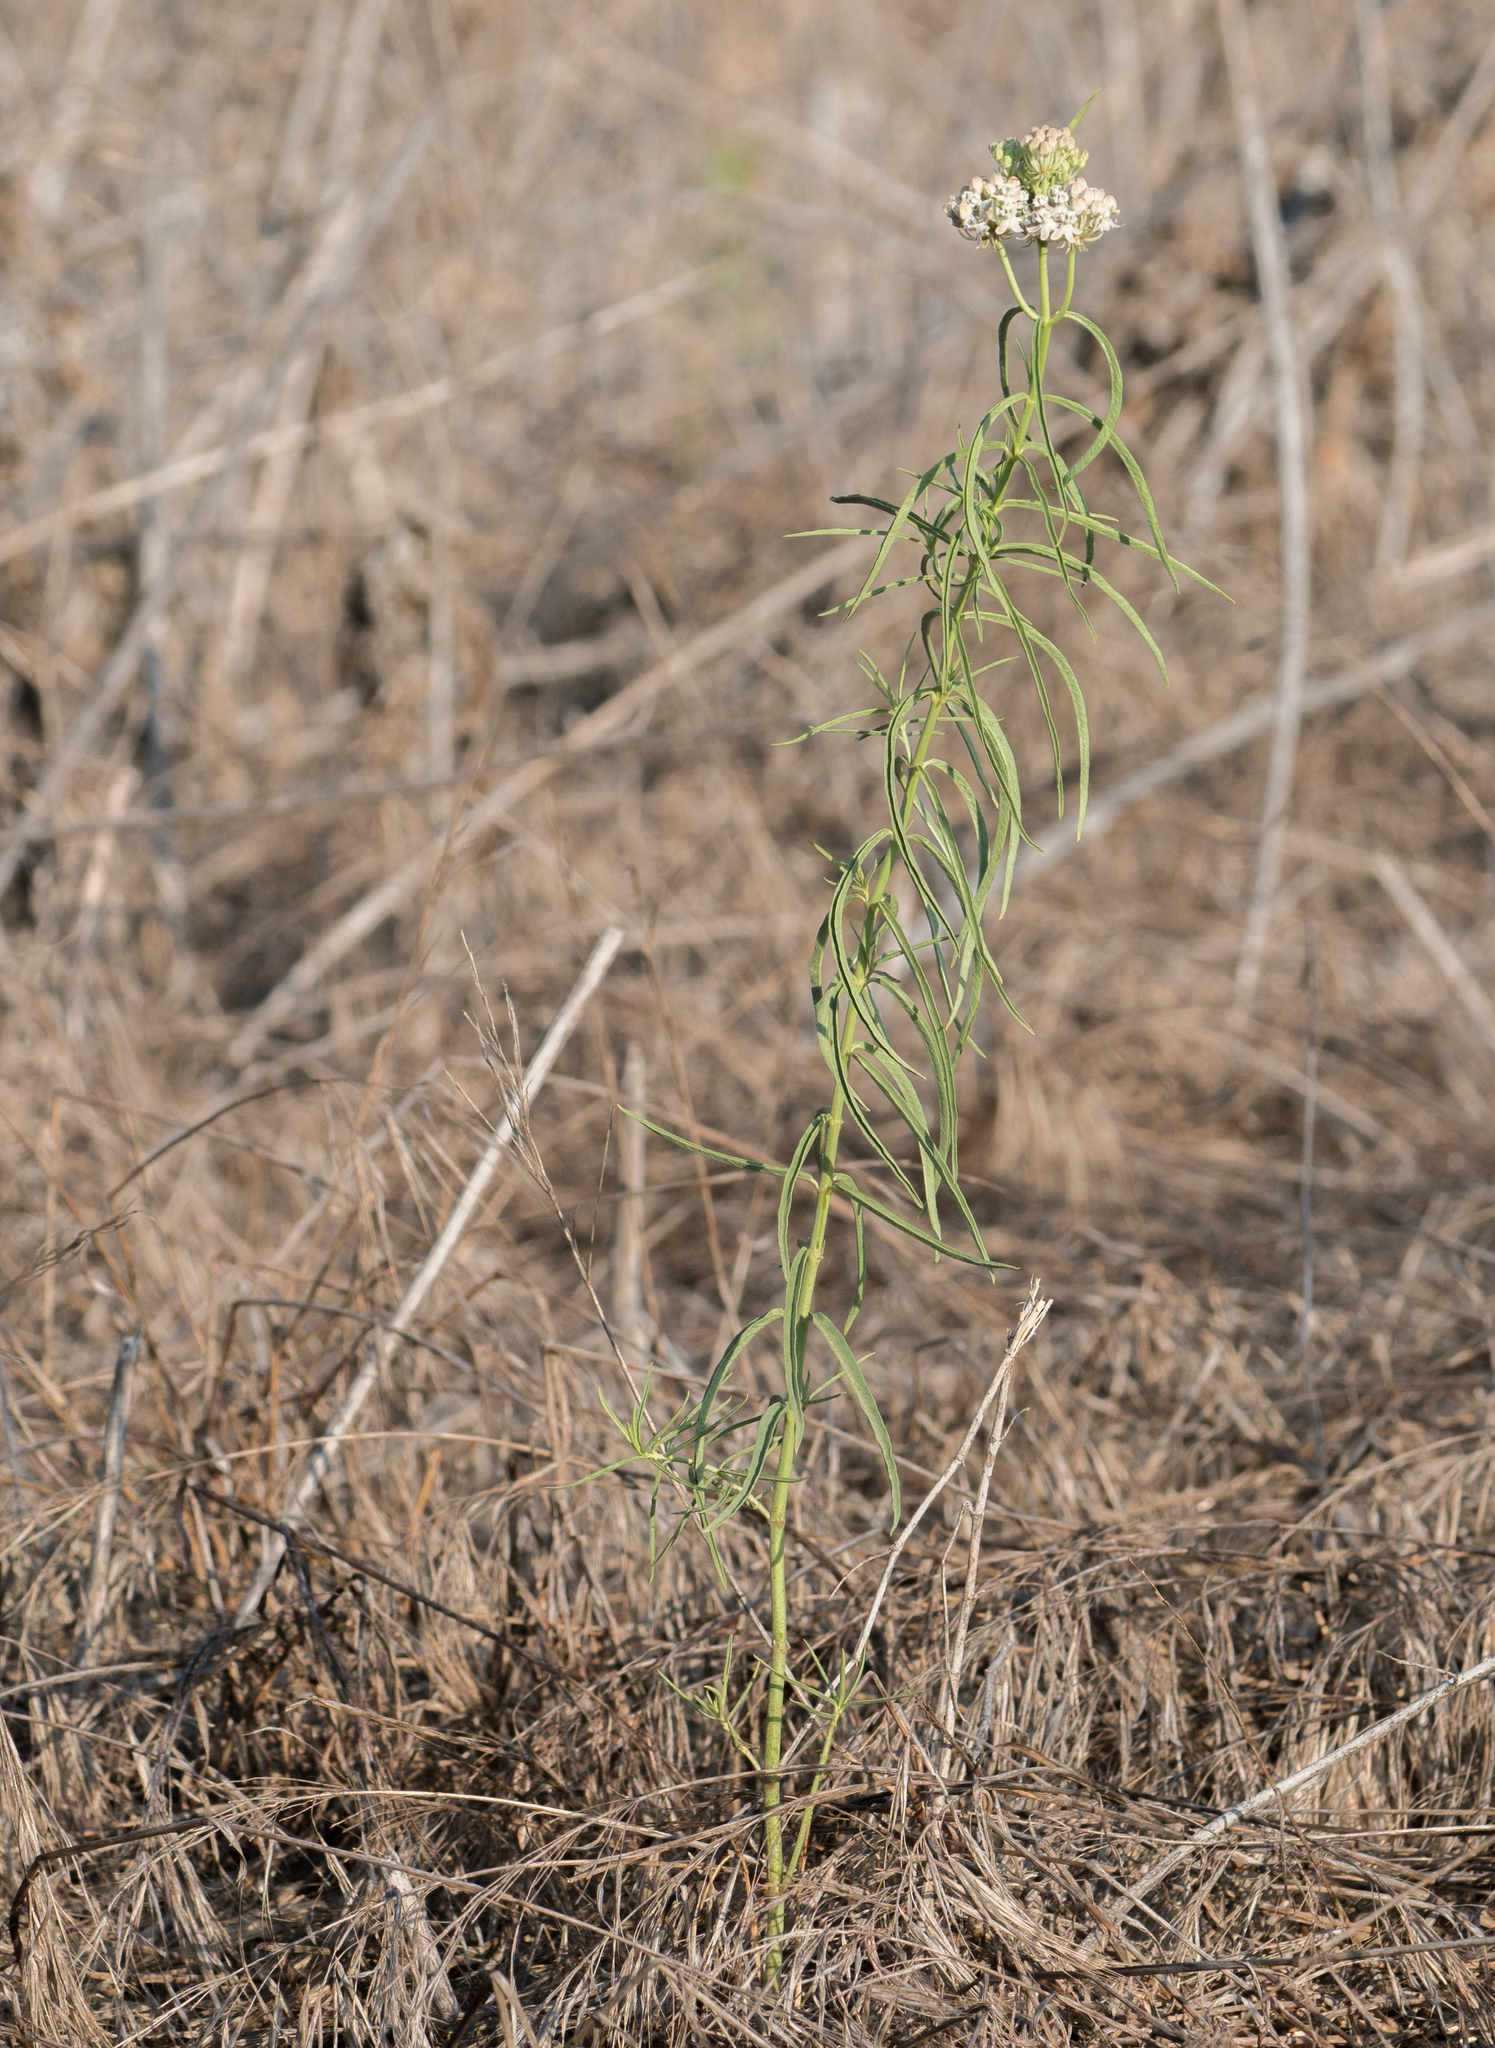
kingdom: Plantae
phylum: Tracheophyta
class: Magnoliopsida
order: Gentianales
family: Apocynaceae
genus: Asclepias
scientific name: Asclepias fascicularis
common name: Mexican milkweed
